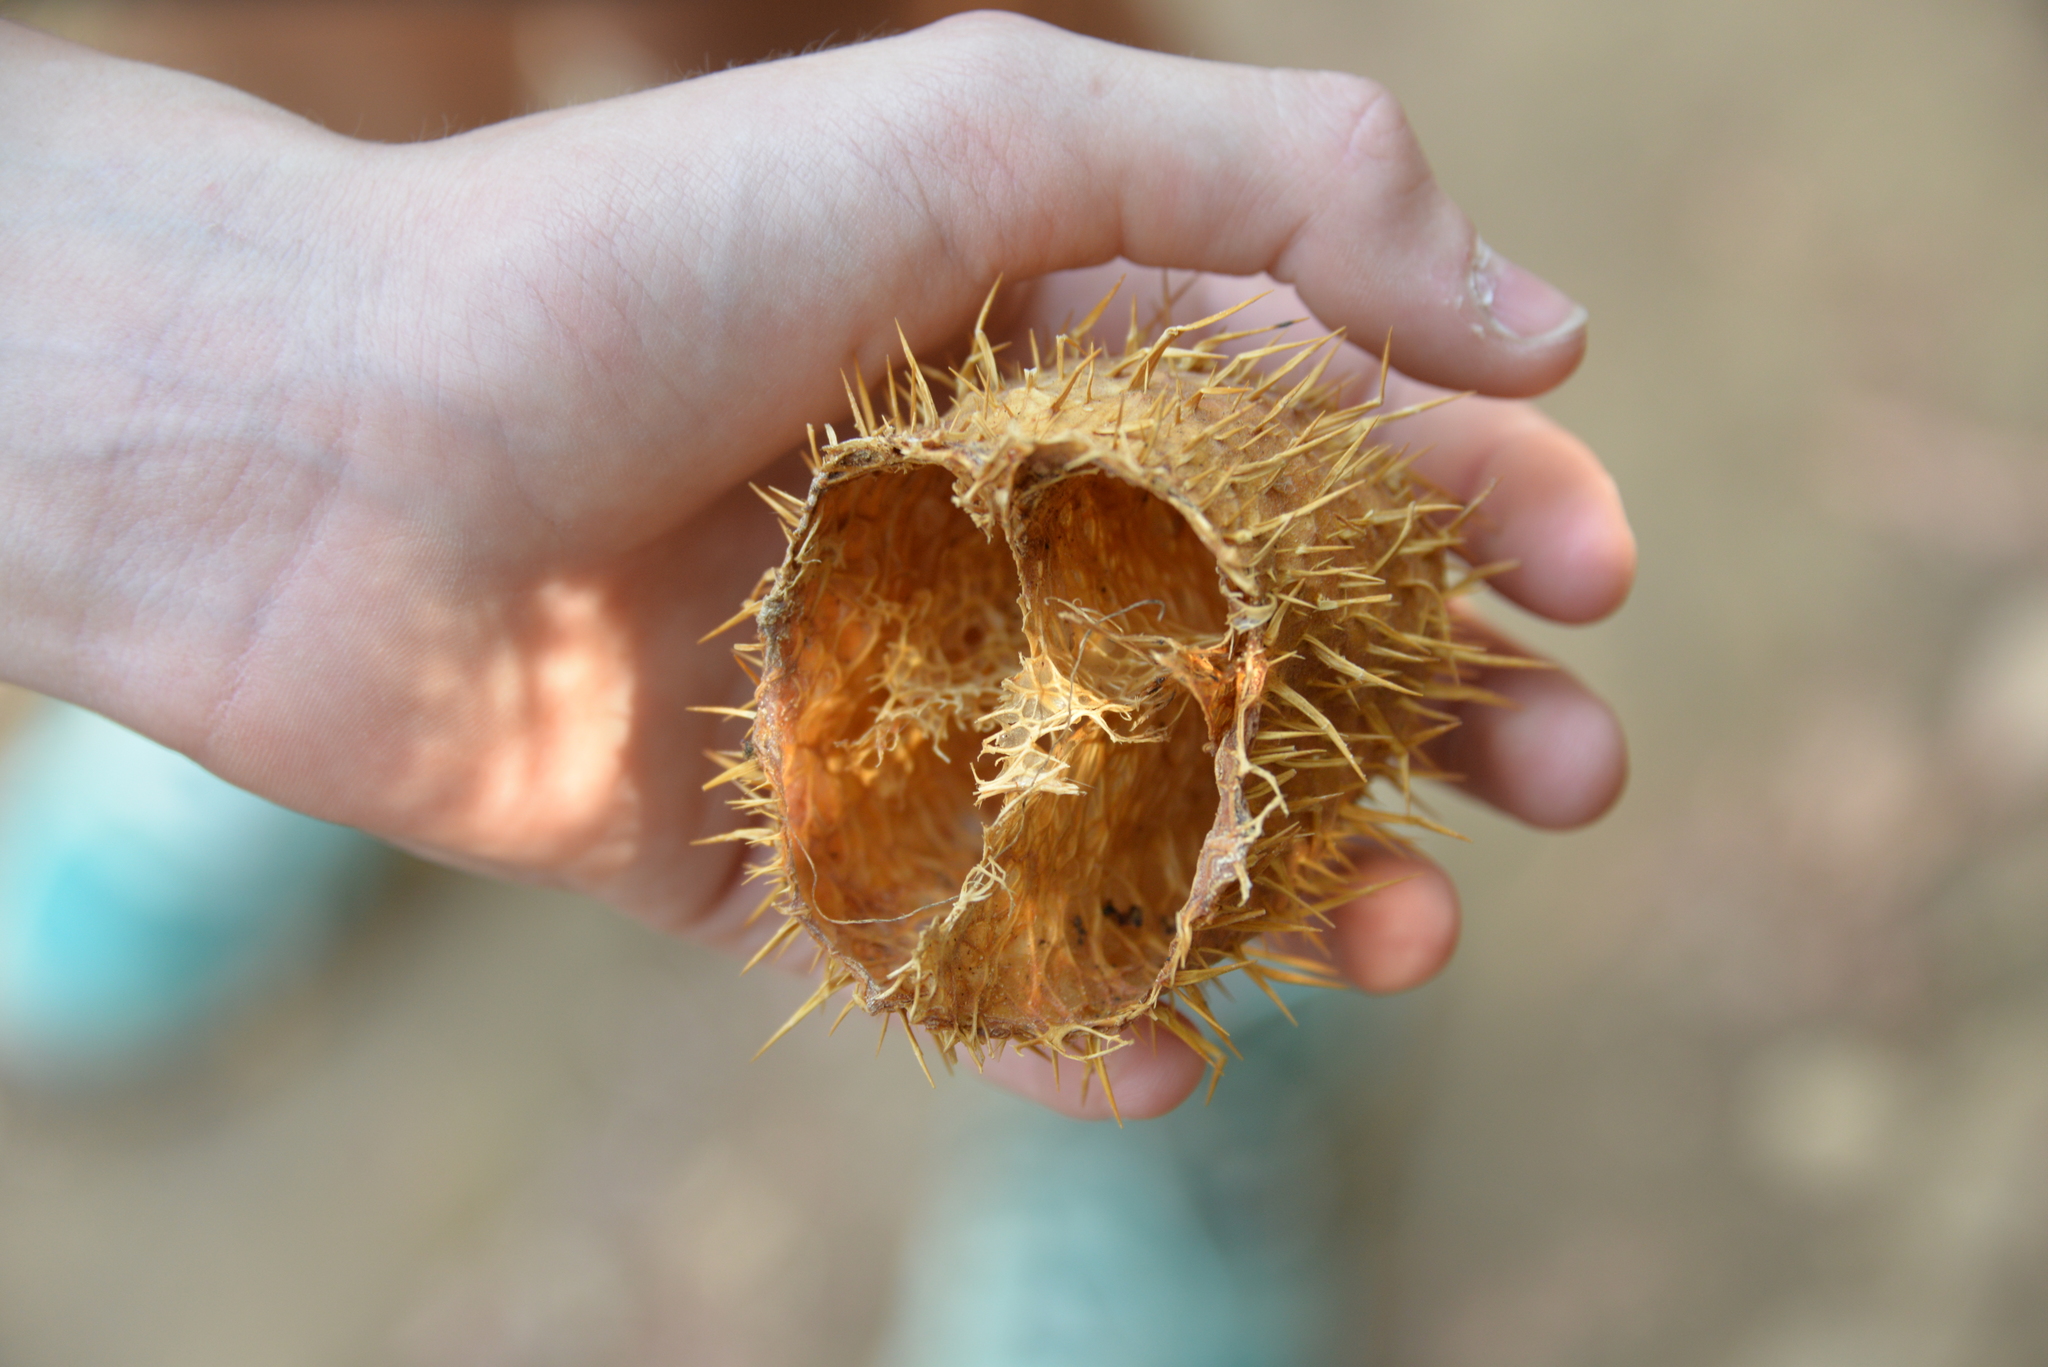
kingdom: Plantae
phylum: Tracheophyta
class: Magnoliopsida
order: Cucurbitales
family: Cucurbitaceae
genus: Marah
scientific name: Marah macrocarpa
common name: Cucamonga manroot
